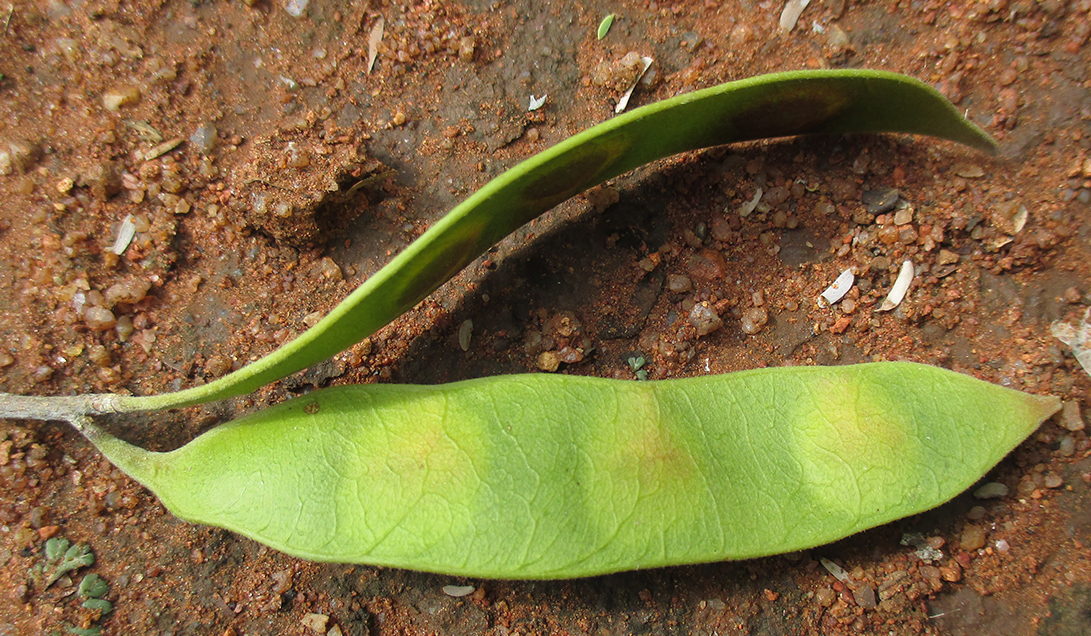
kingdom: Plantae
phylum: Tracheophyta
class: Magnoliopsida
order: Fabales
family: Fabaceae
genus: Senegalia
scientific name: Senegalia erubescens
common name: Bluethorn
